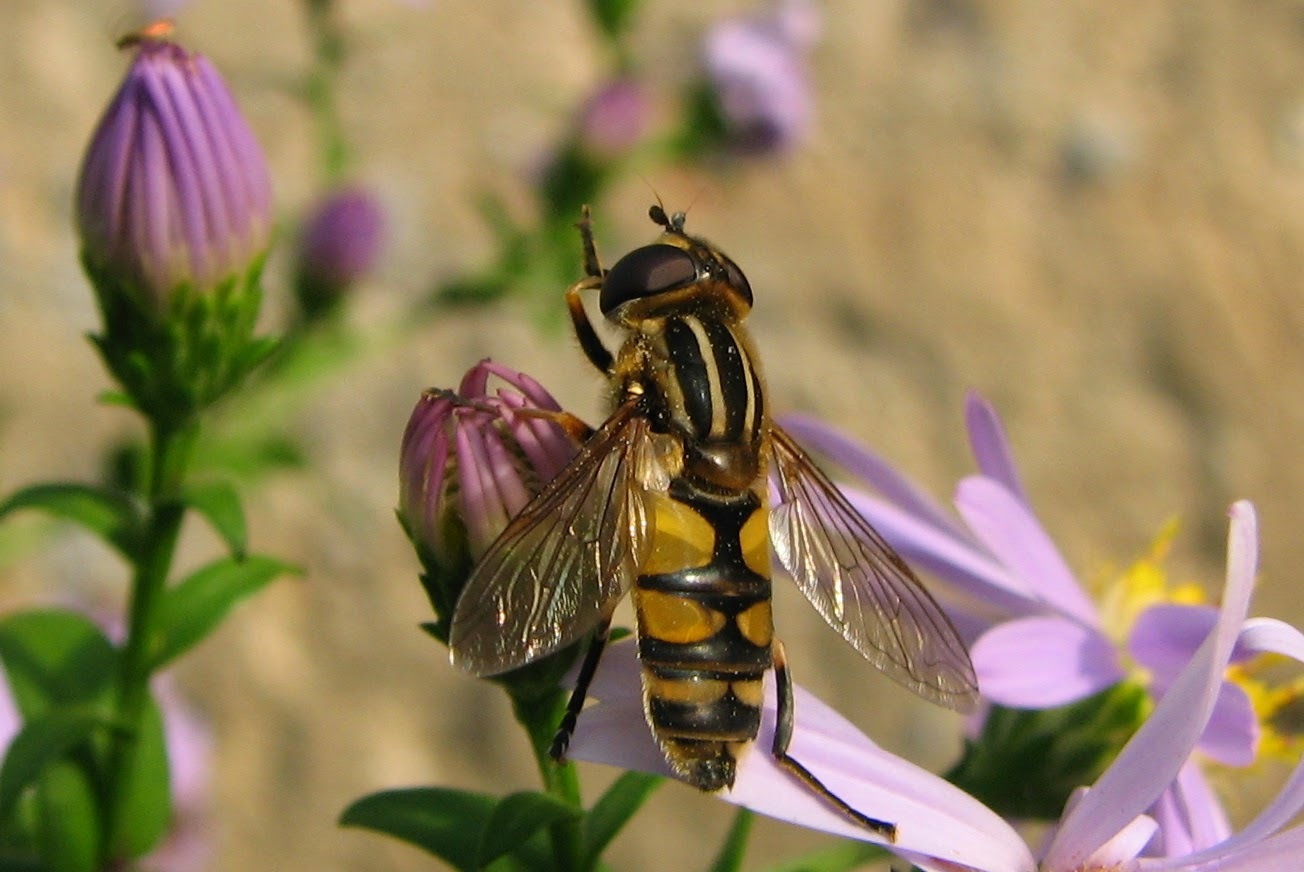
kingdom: Animalia
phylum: Arthropoda
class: Insecta
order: Diptera
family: Syrphidae
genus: Helophilus
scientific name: Helophilus hybridus
